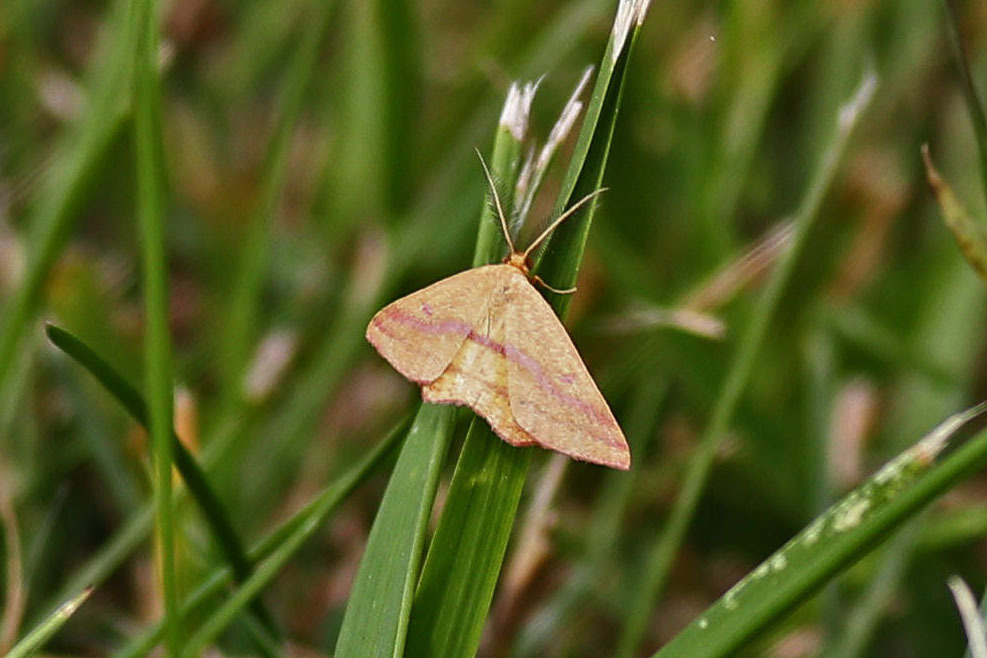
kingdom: Animalia
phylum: Arthropoda
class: Insecta
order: Lepidoptera
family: Geometridae
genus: Haematopis
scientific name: Haematopis grataria
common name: Chickweed geometer
